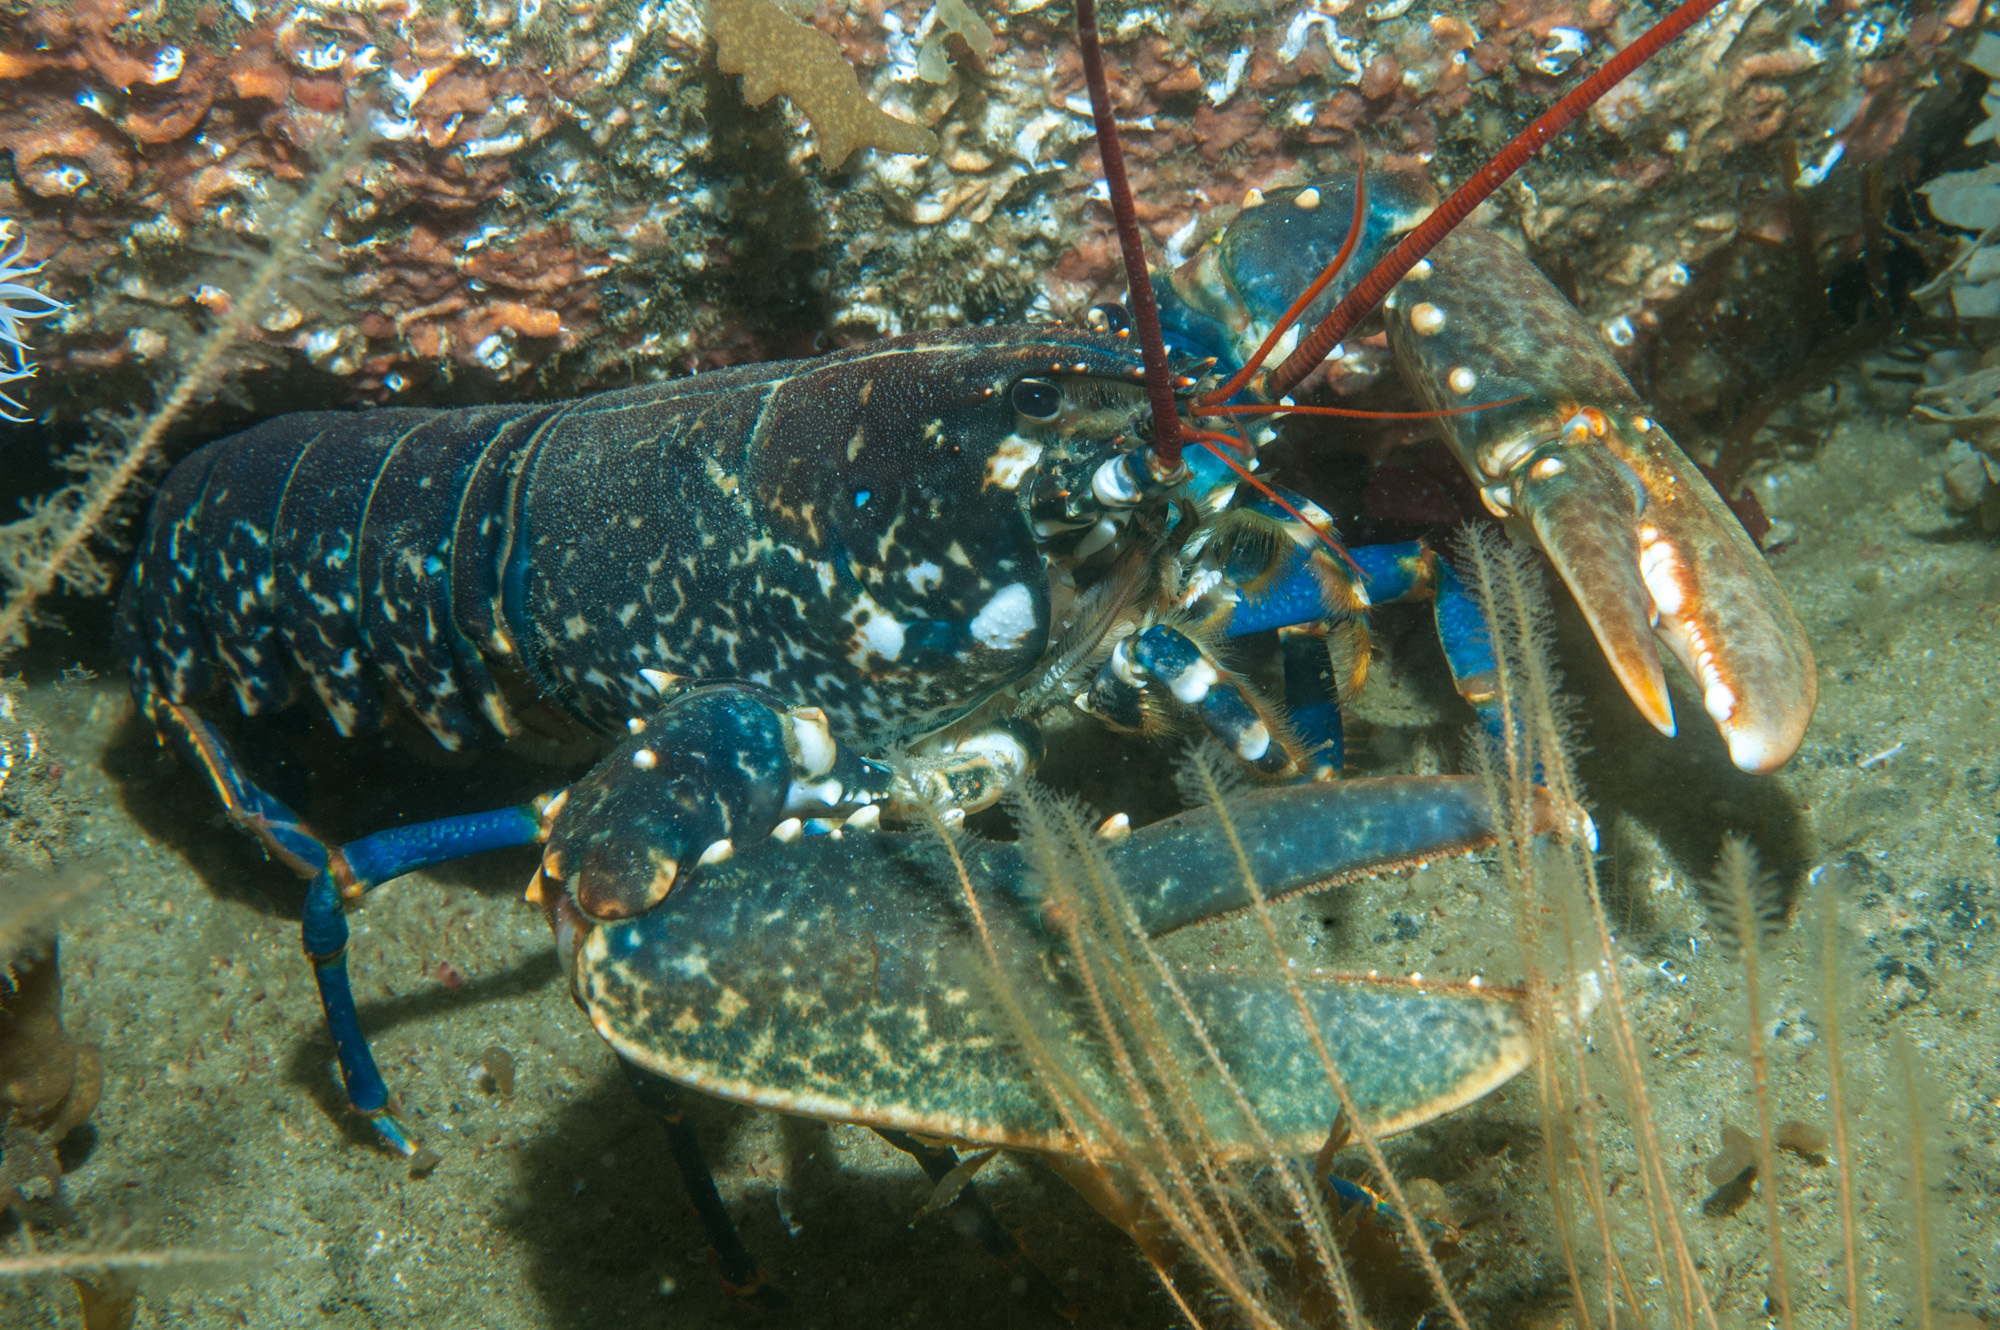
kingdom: Animalia
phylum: Arthropoda
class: Malacostraca
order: Decapoda
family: Nephropidae
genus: Homarus
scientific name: Homarus gammarus
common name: European lobster
